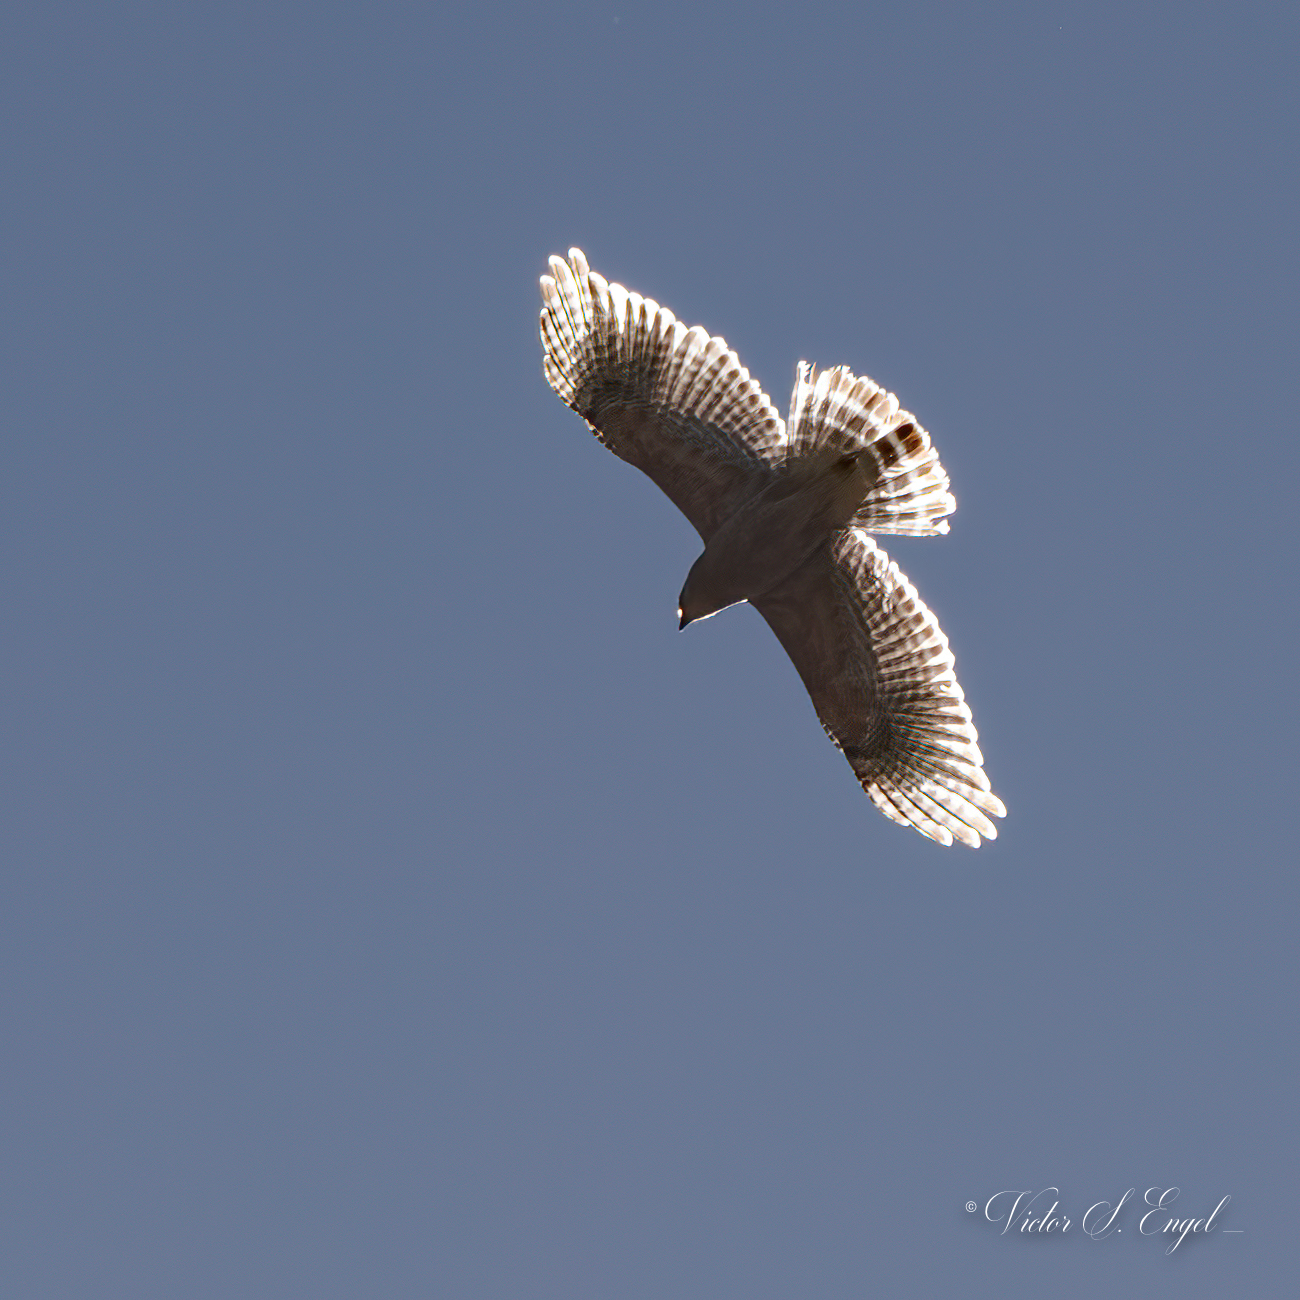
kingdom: Animalia
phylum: Chordata
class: Aves
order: Accipitriformes
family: Accipitridae
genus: Buteo
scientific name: Buteo lineatus
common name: Red-shouldered hawk
